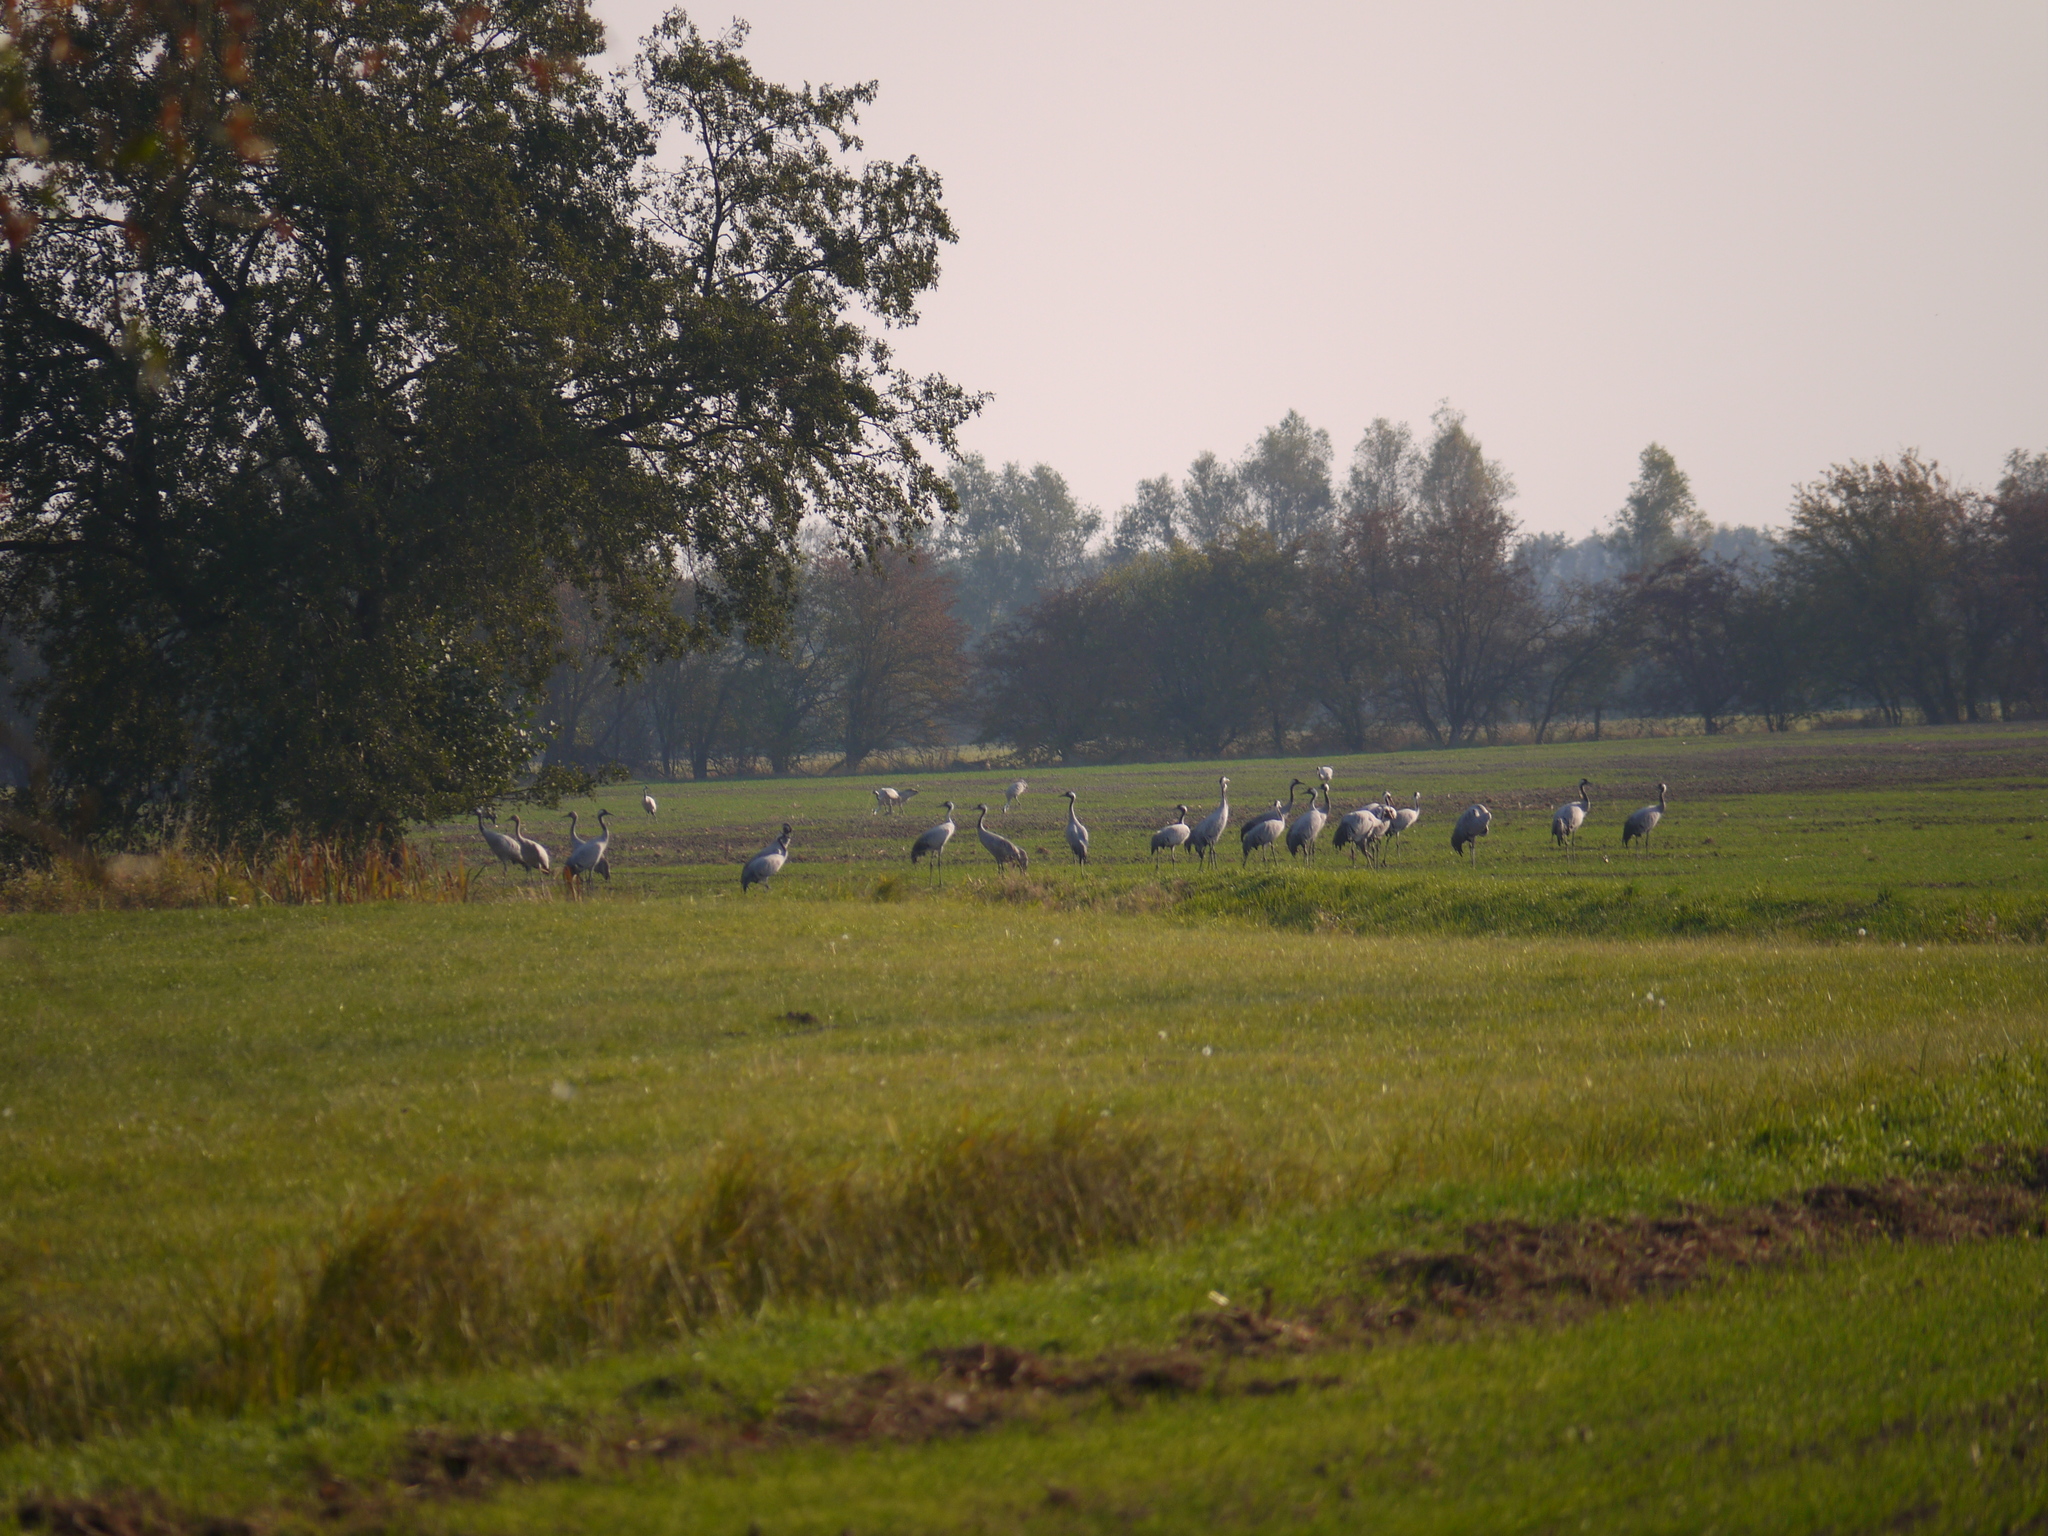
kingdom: Animalia
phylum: Chordata
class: Aves
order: Gruiformes
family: Gruidae
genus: Grus
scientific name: Grus grus
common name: Common crane
